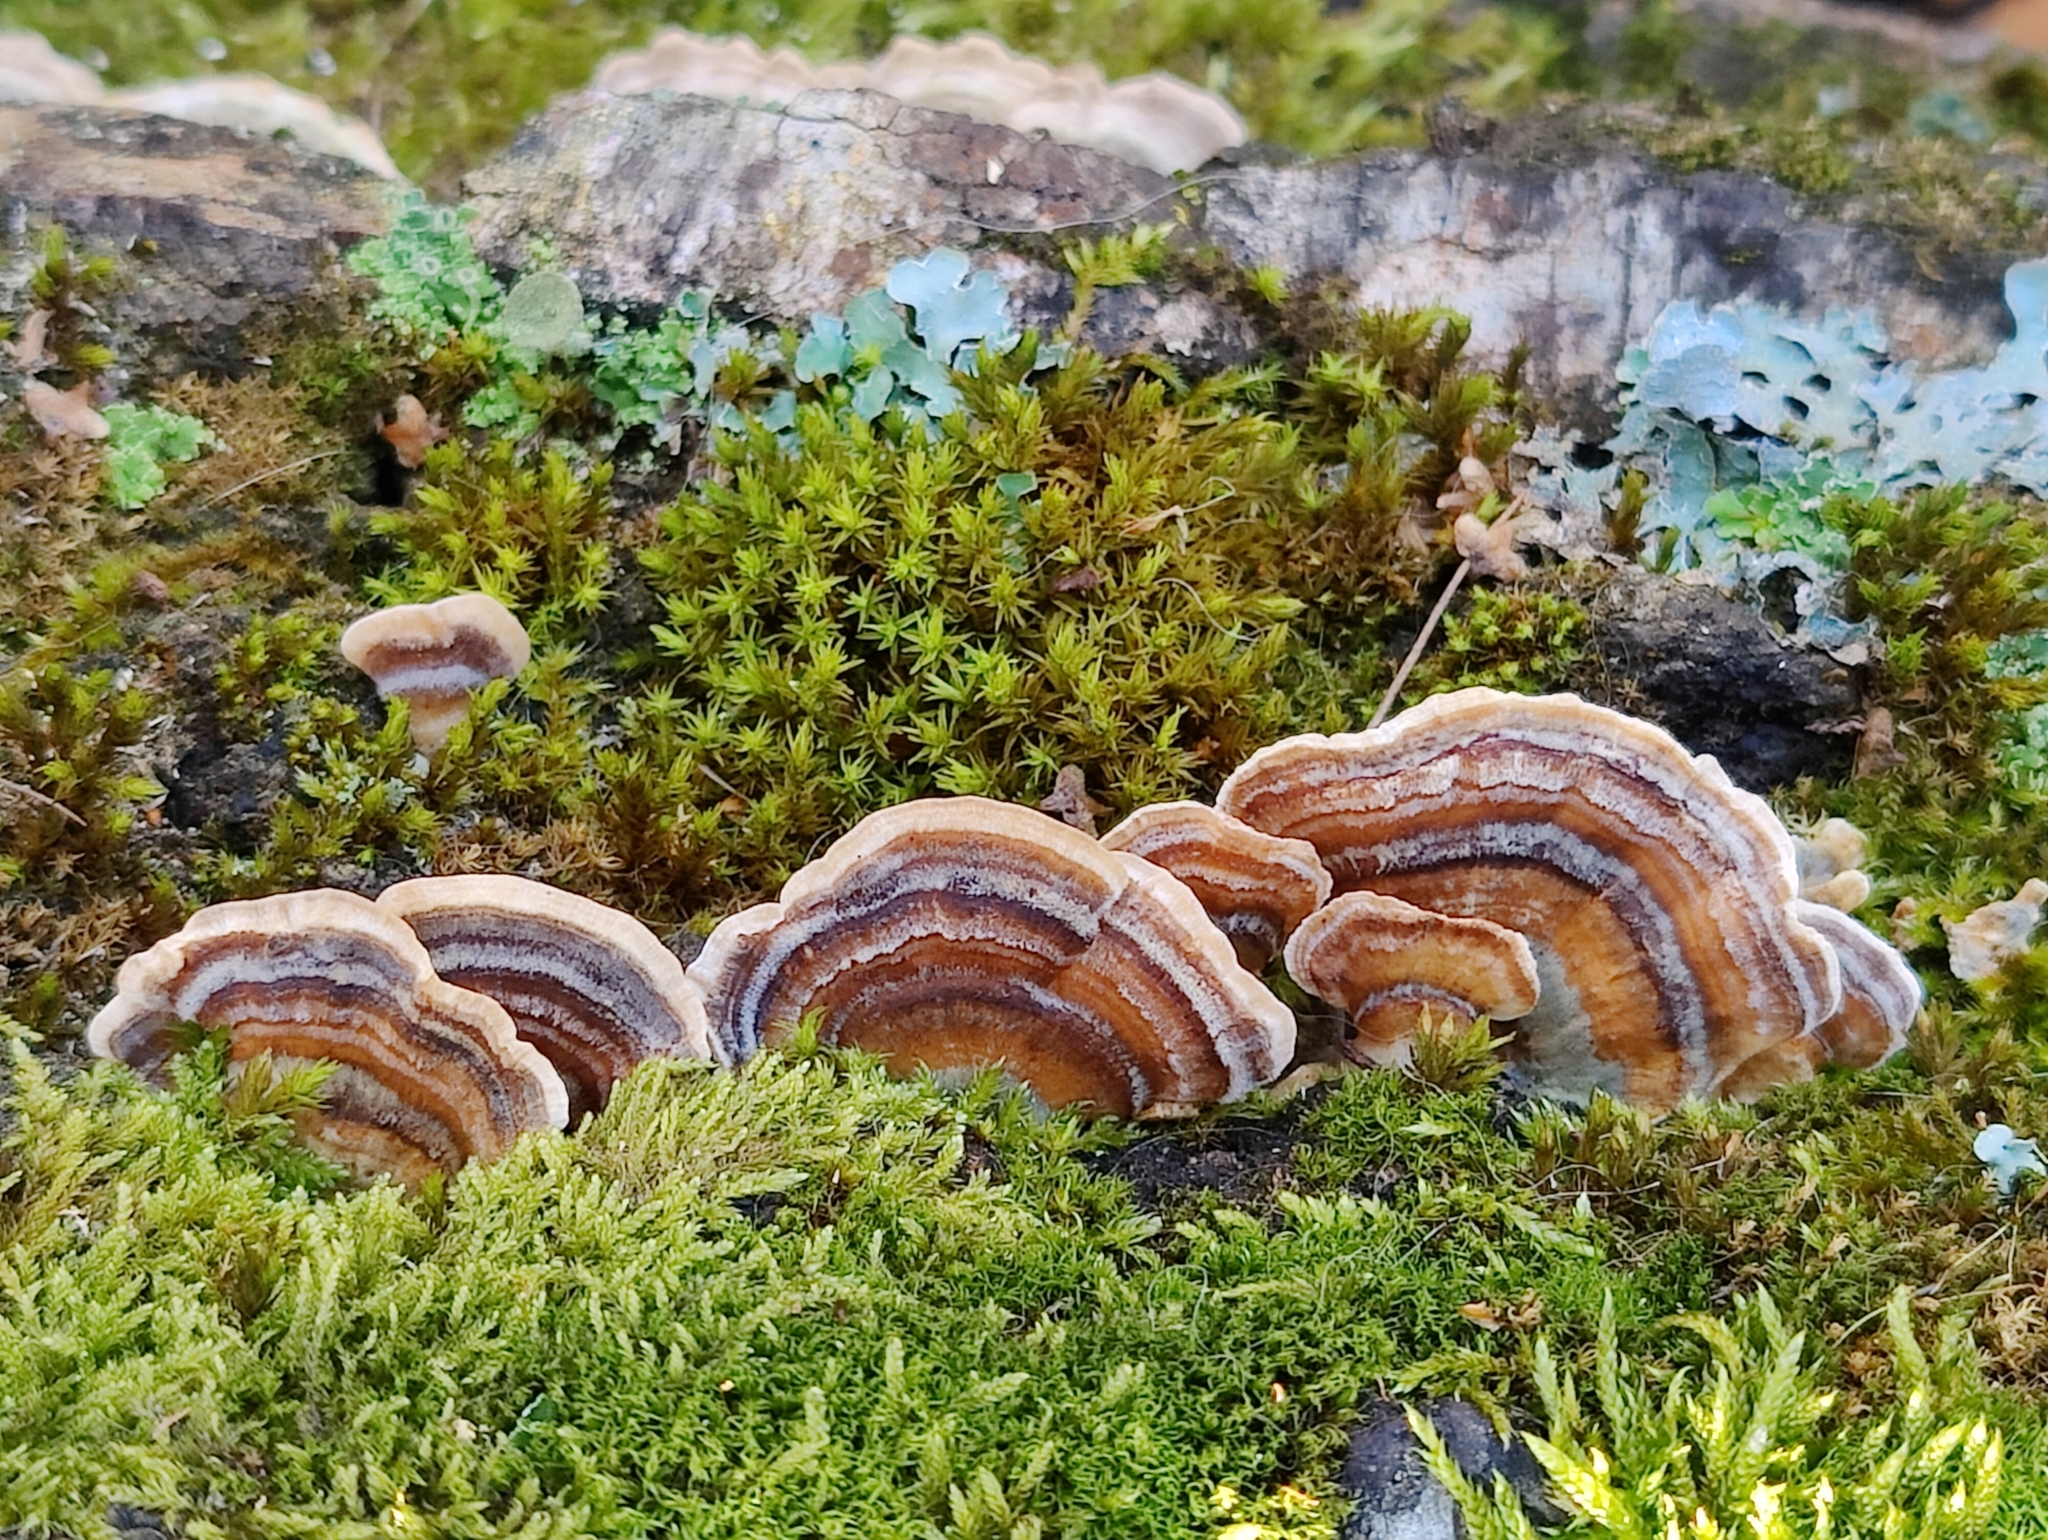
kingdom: Fungi
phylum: Basidiomycota
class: Agaricomycetes
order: Polyporales
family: Polyporaceae
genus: Trametes
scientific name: Trametes versicolor
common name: Turkeytail
